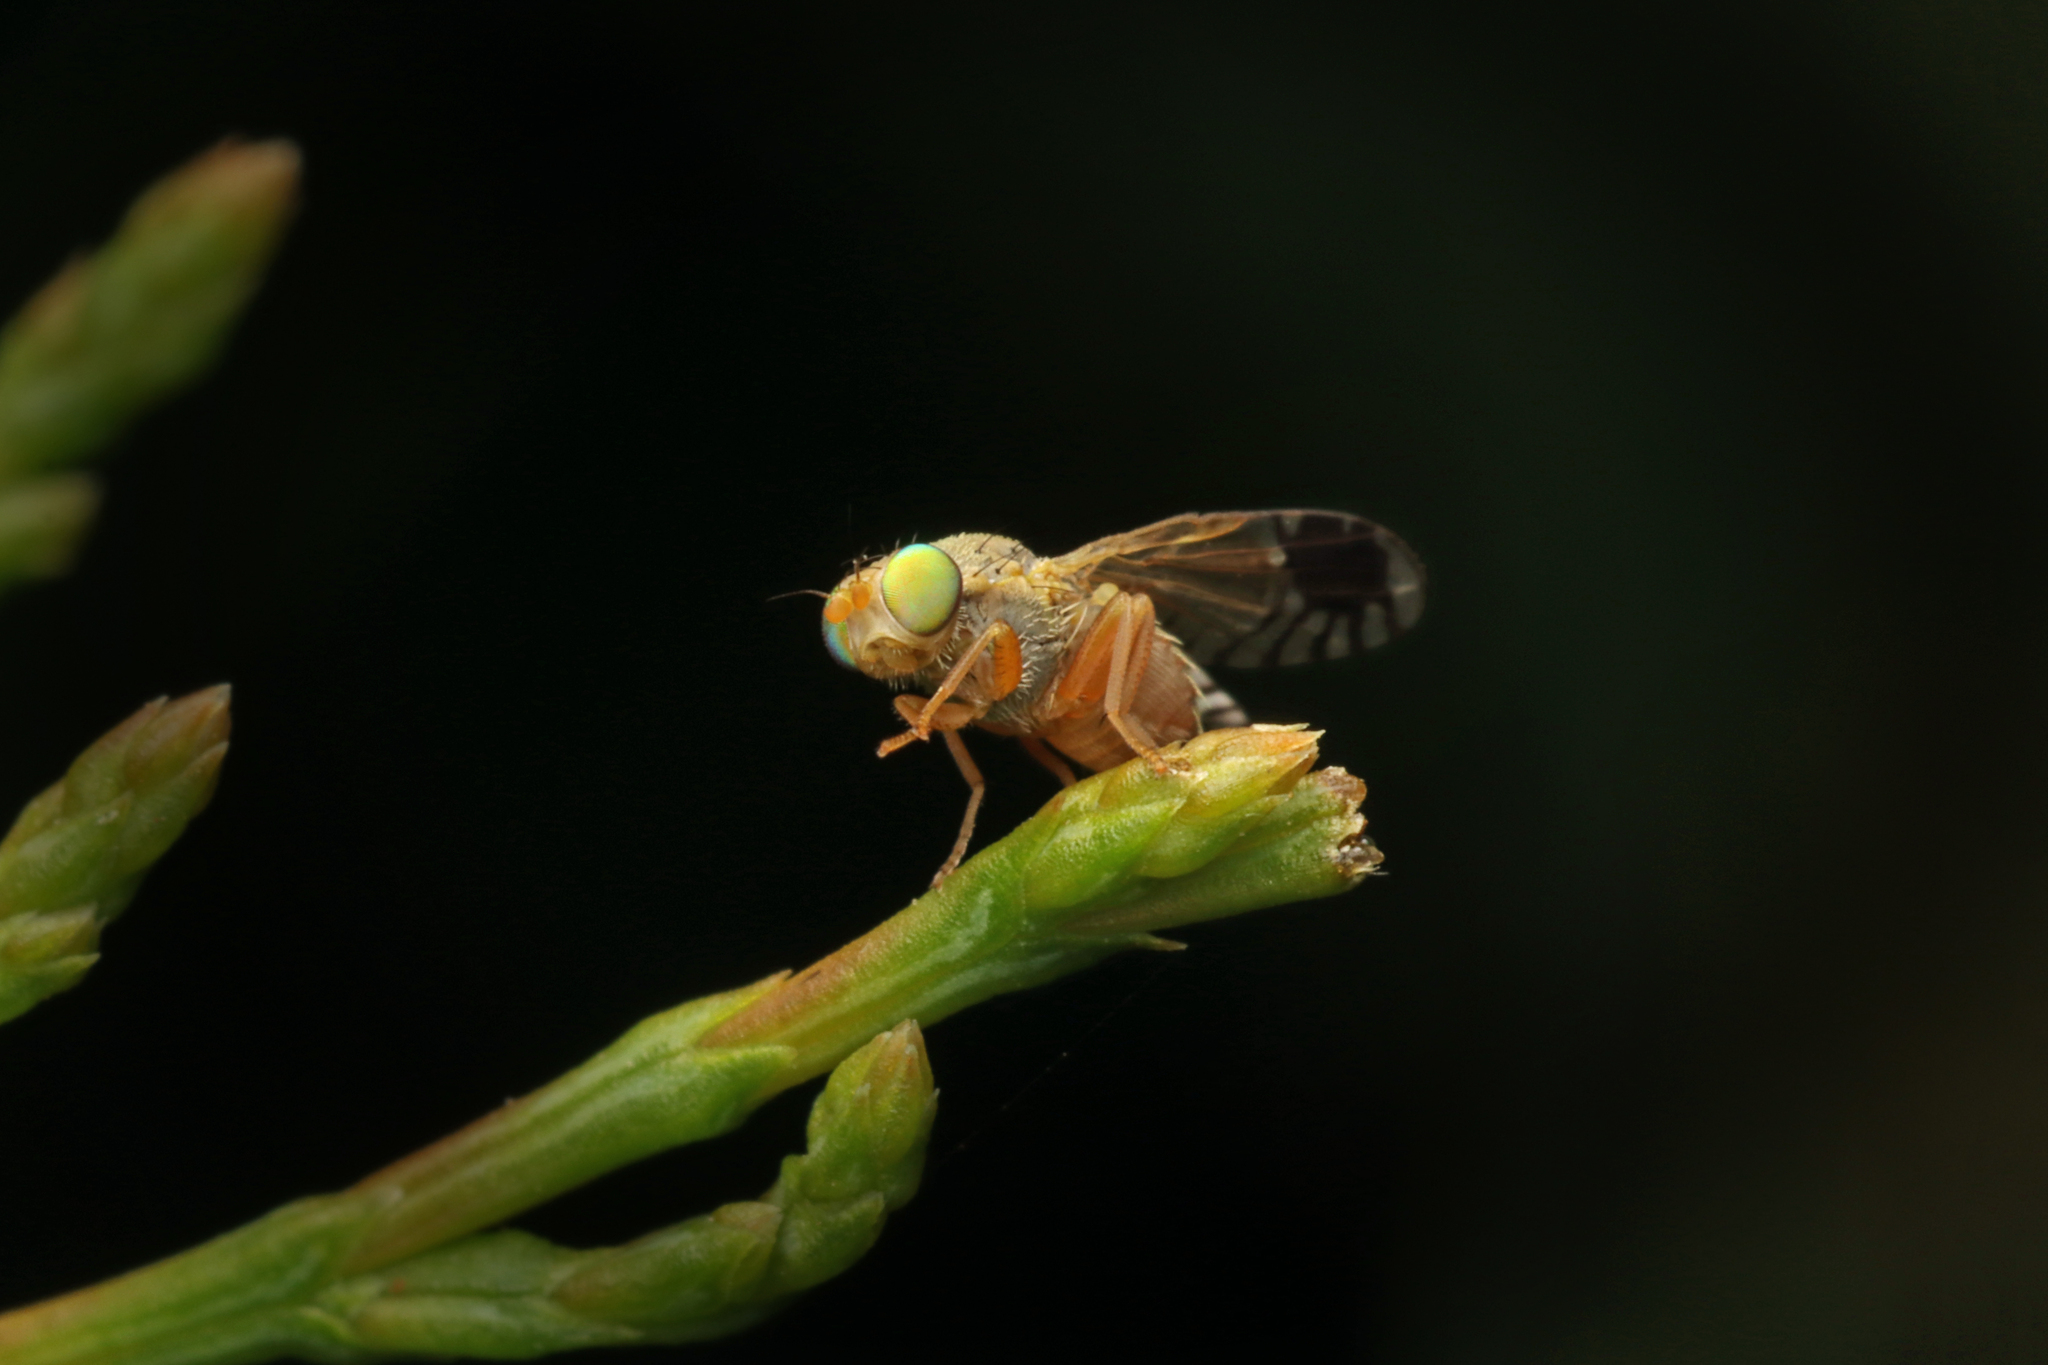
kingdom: Animalia
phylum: Arthropoda
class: Insecta
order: Diptera
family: Tephritidae
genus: Austrotephritis
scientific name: Austrotephritis
